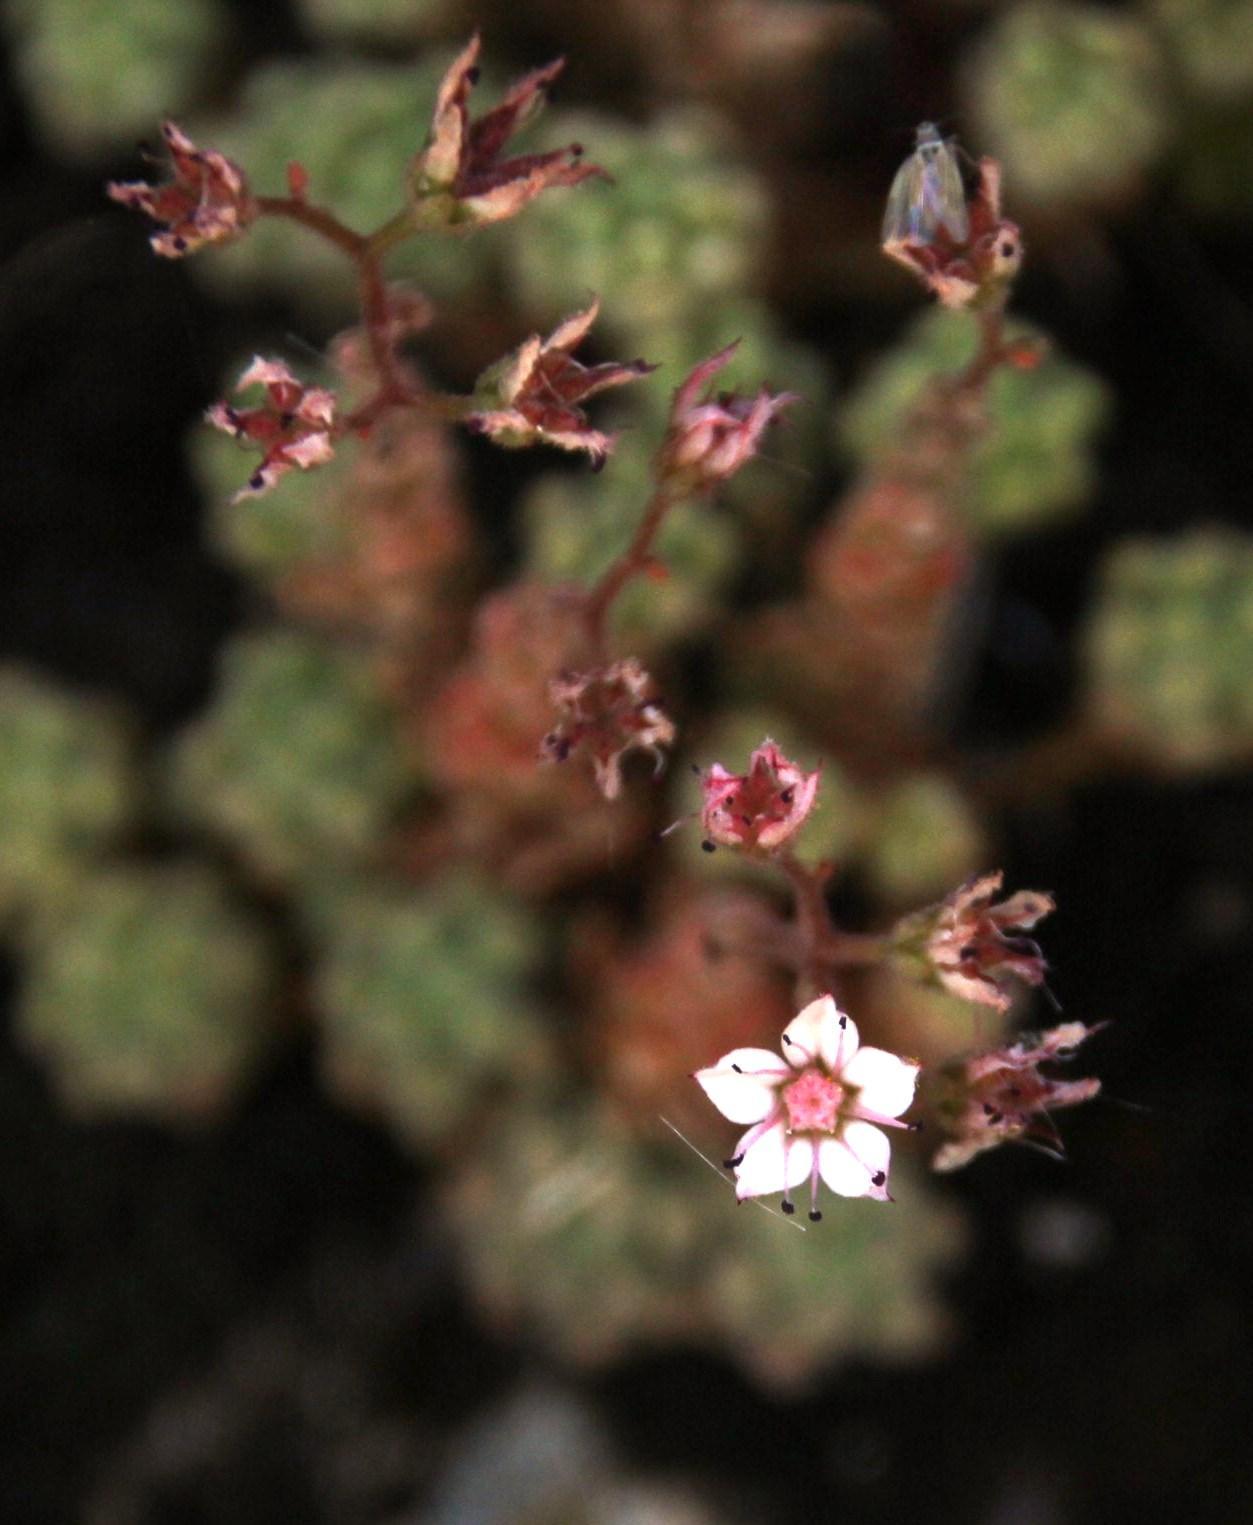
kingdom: Plantae
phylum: Tracheophyta
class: Magnoliopsida
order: Saxifragales
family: Crassulaceae
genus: Sedum
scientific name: Sedum hirsutum
